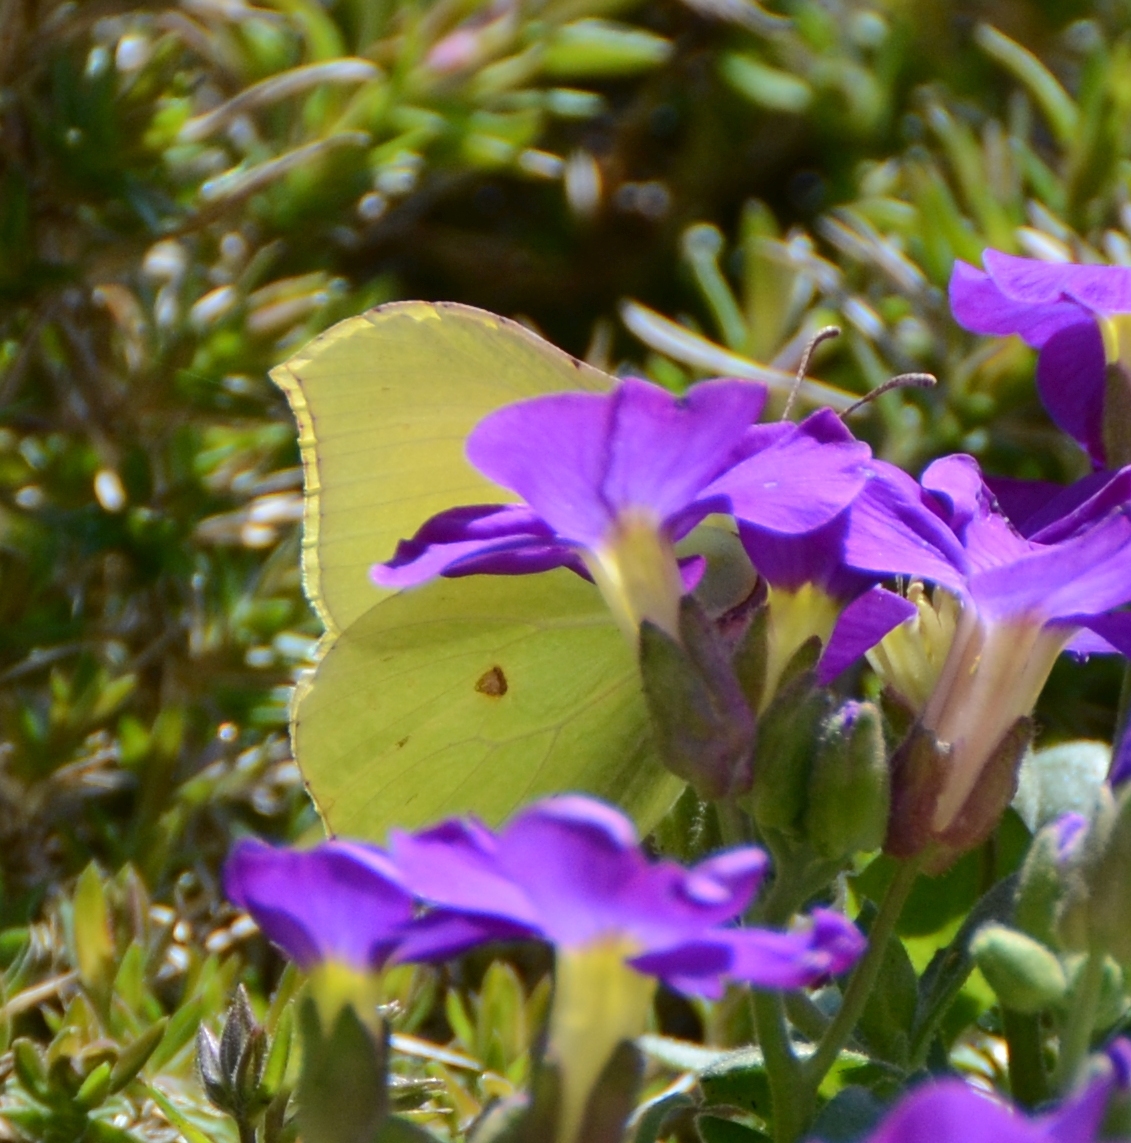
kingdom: Animalia
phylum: Arthropoda
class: Insecta
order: Lepidoptera
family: Pieridae
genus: Gonepteryx
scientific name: Gonepteryx rhamni
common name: Brimstone
